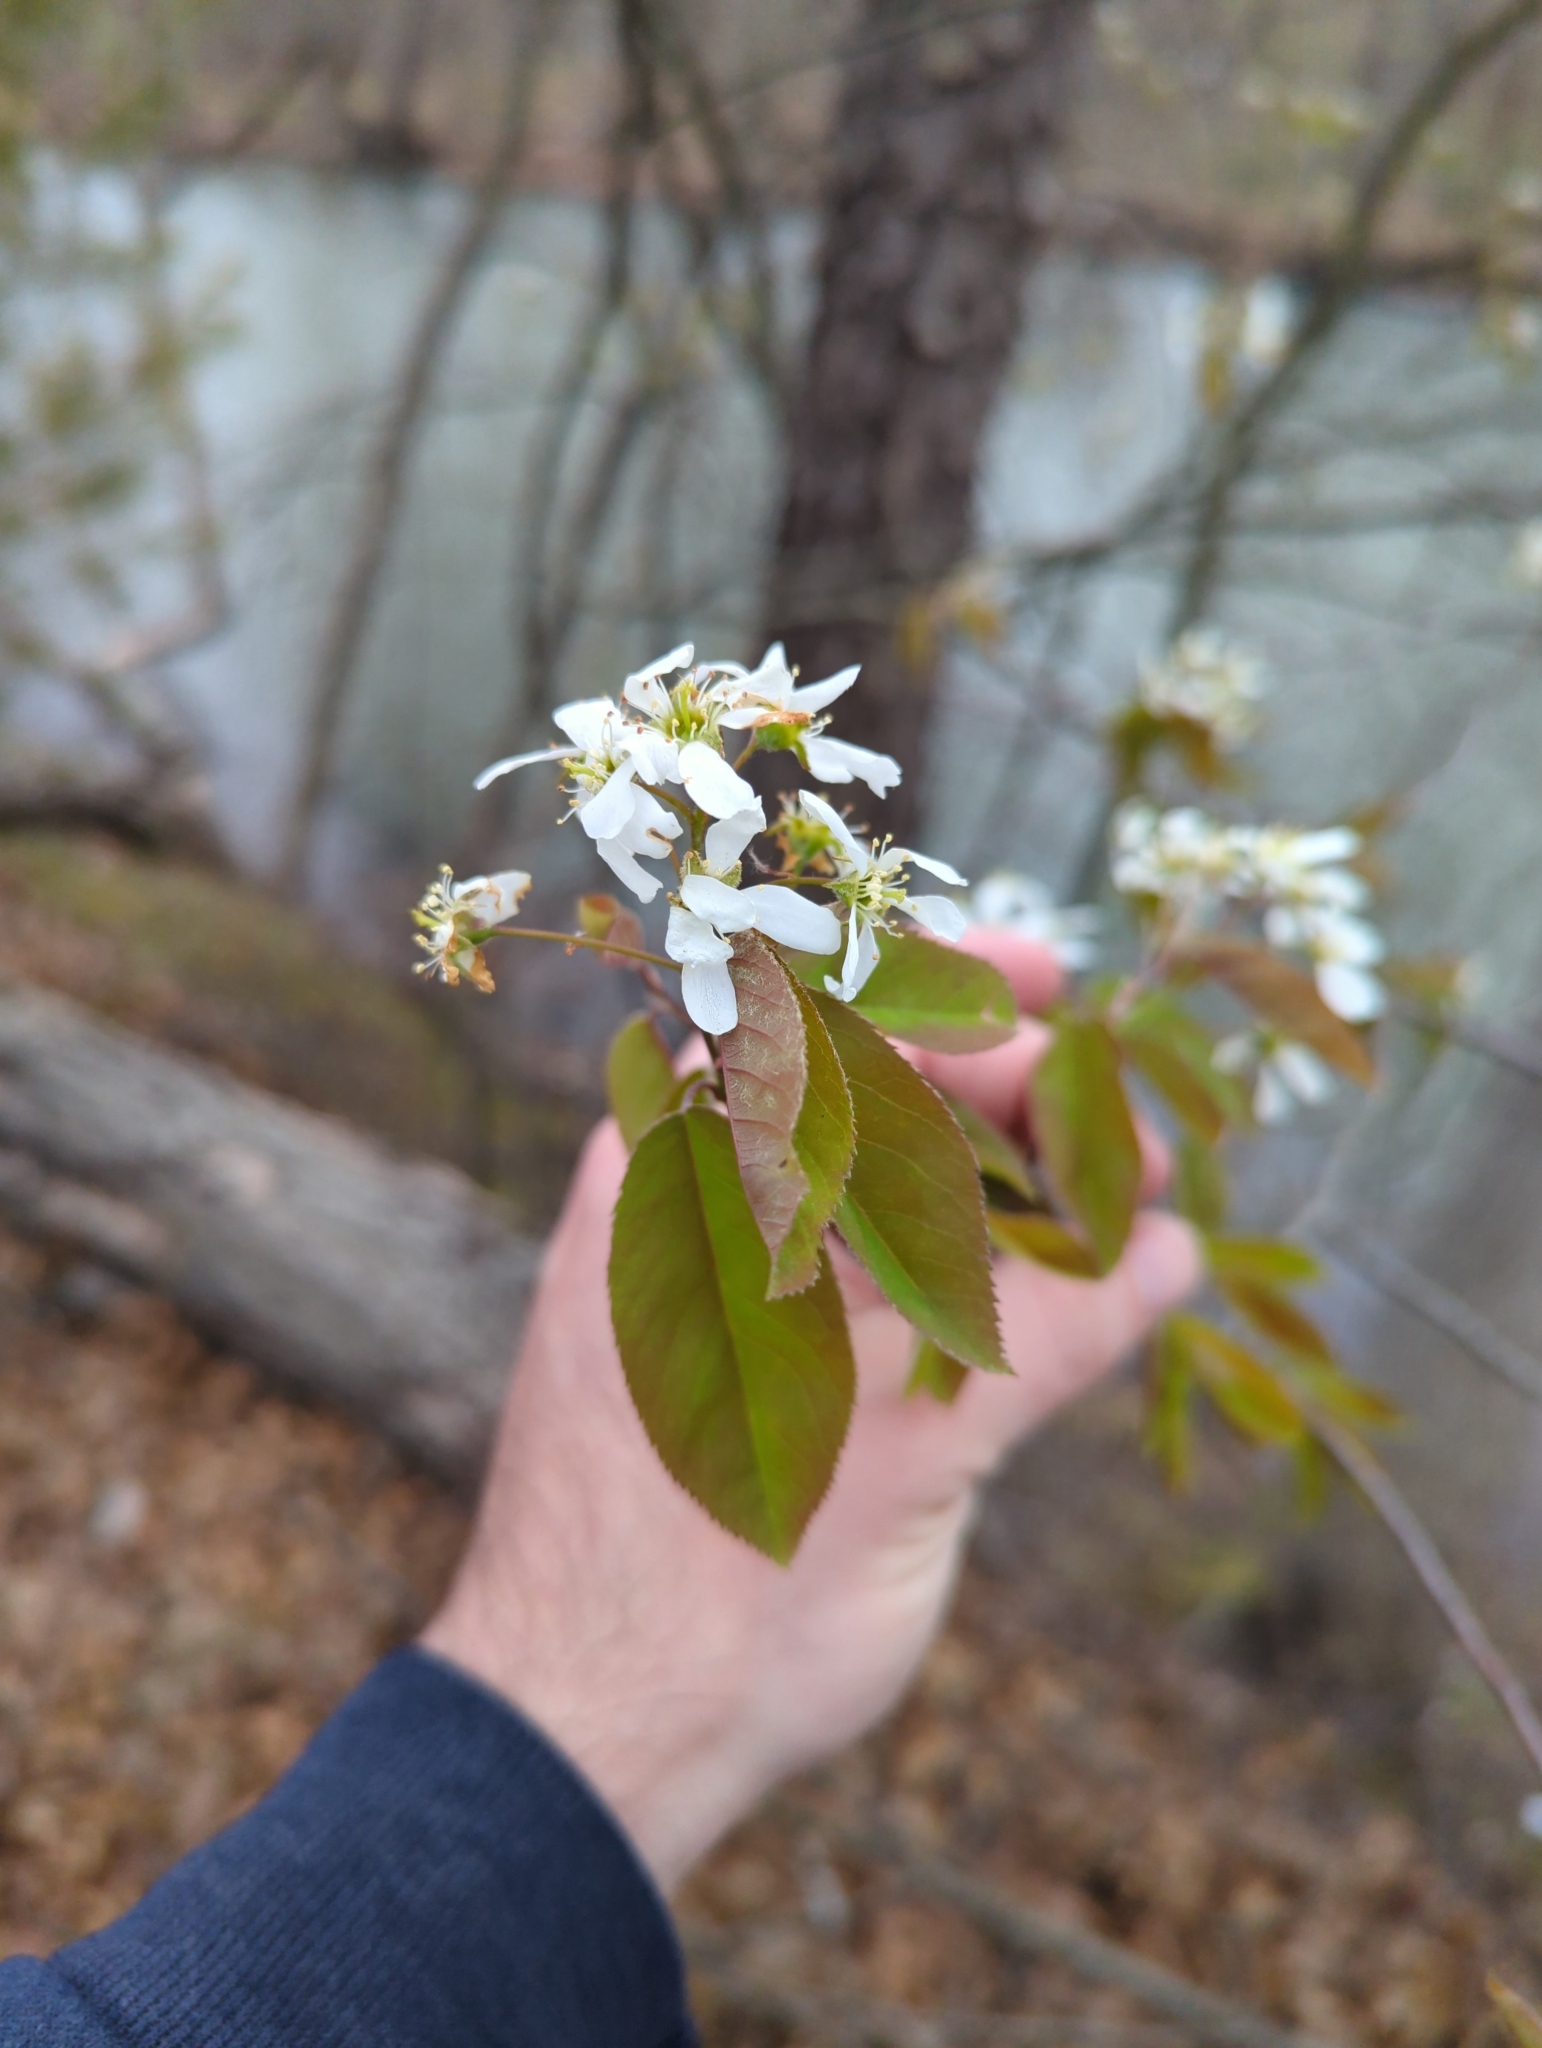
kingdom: Plantae
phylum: Tracheophyta
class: Magnoliopsida
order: Rosales
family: Rosaceae
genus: Amelanchier
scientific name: Amelanchier
